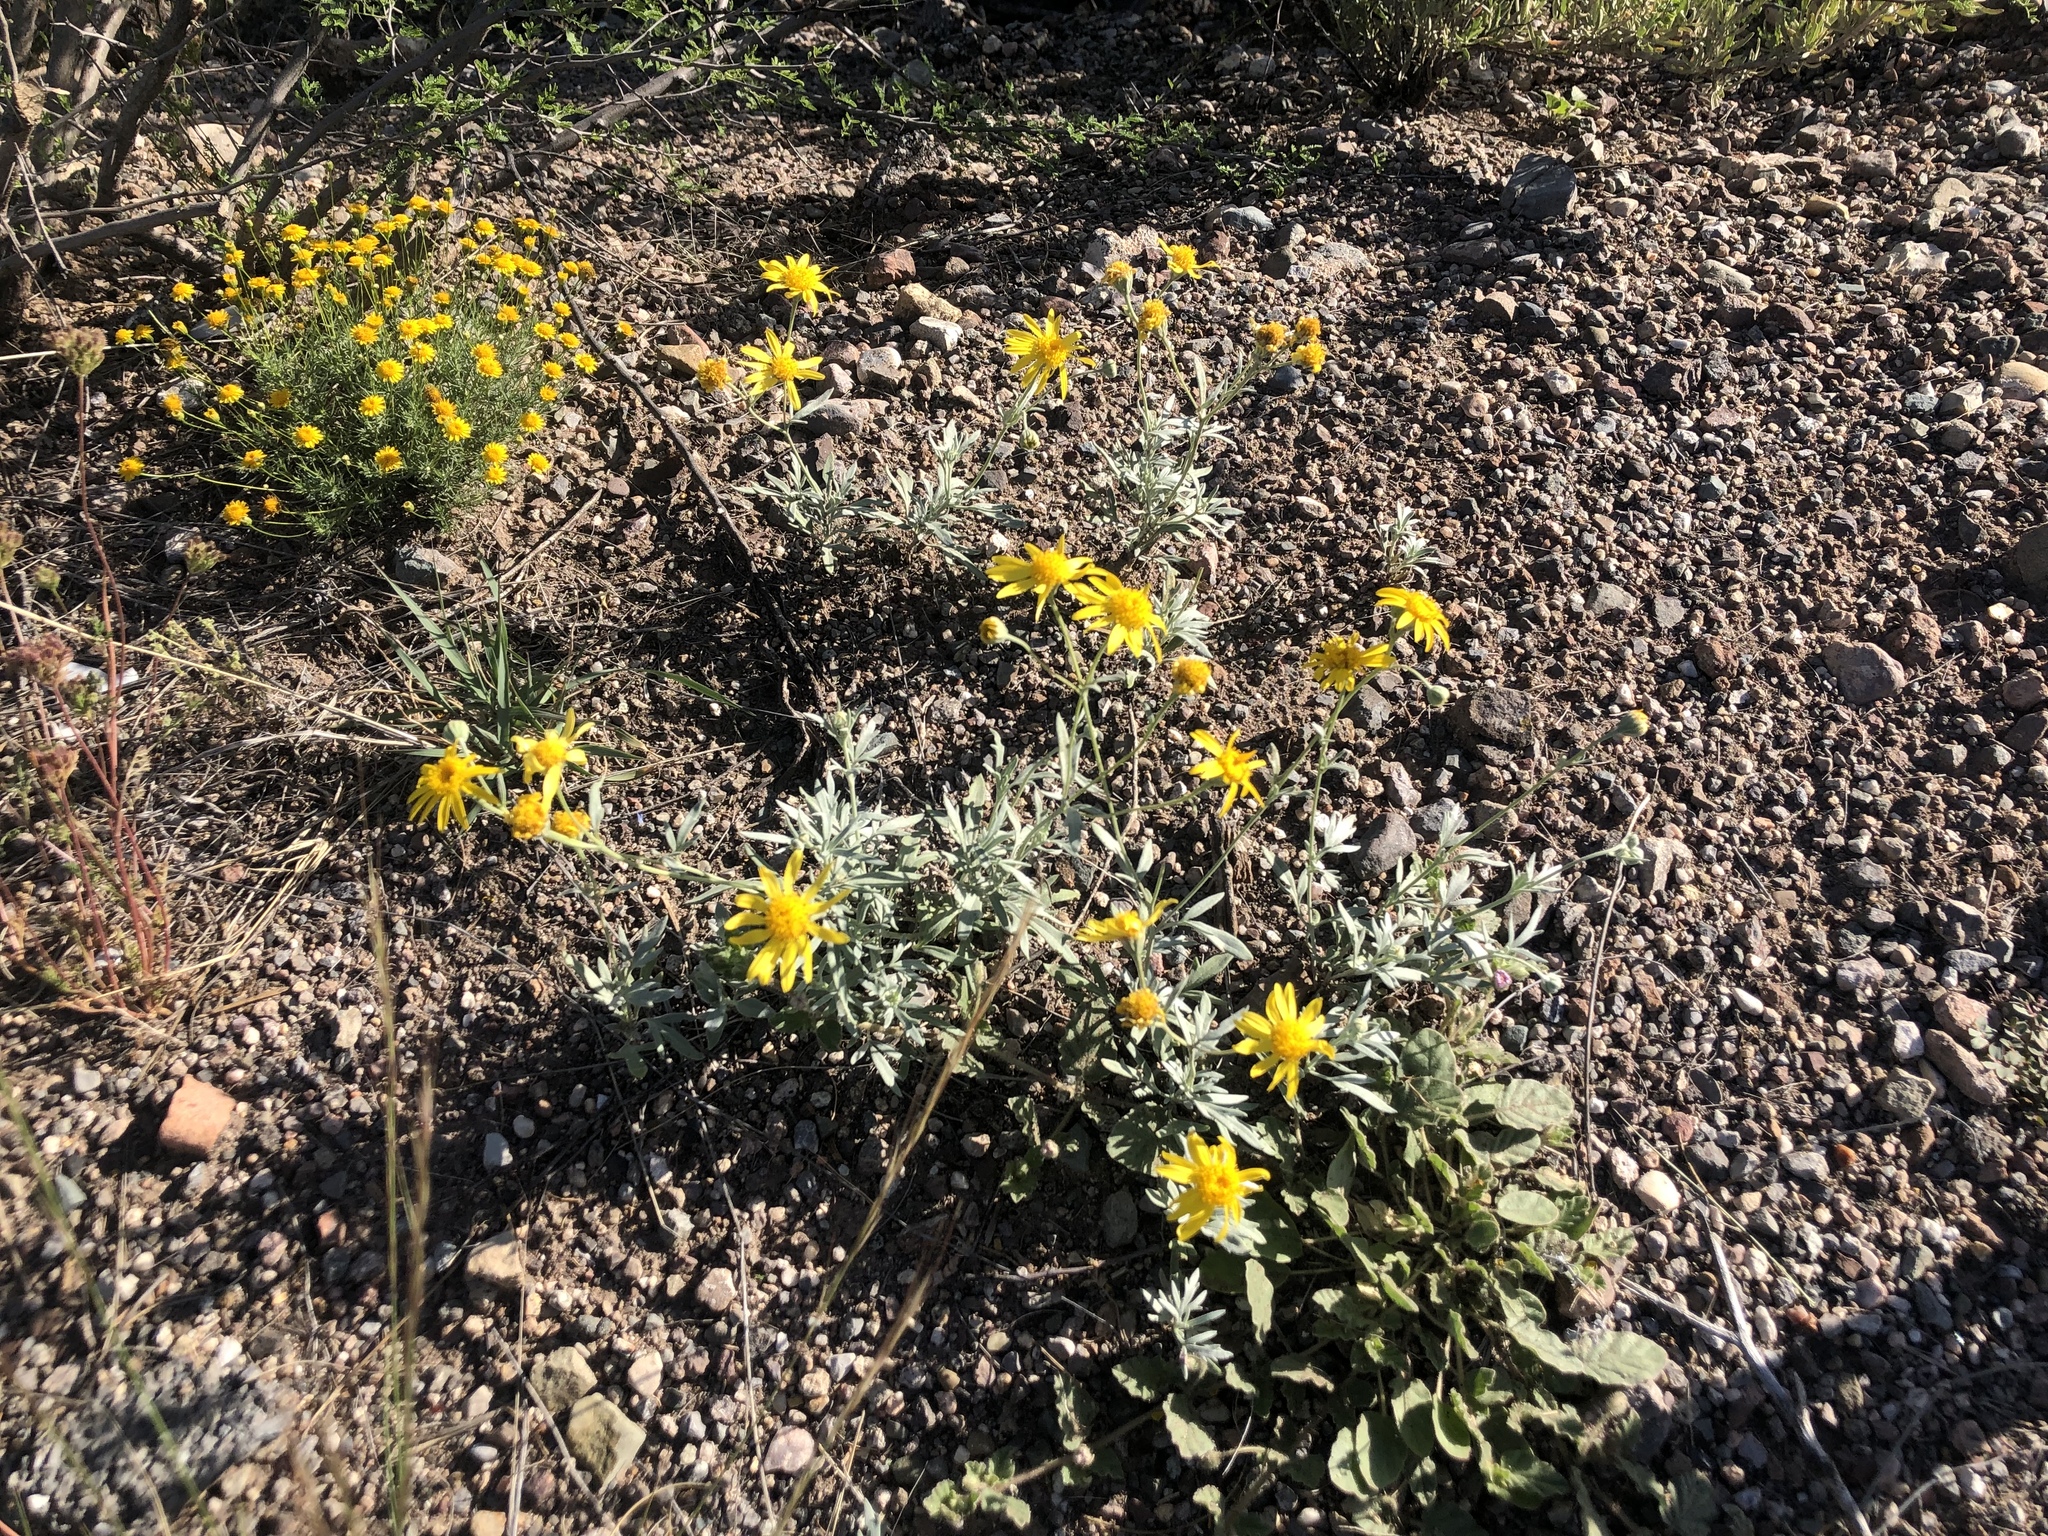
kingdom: Plantae
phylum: Tracheophyta
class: Magnoliopsida
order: Asterales
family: Asteraceae
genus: Picradeniopsis
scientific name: Picradeniopsis absinthifolia
